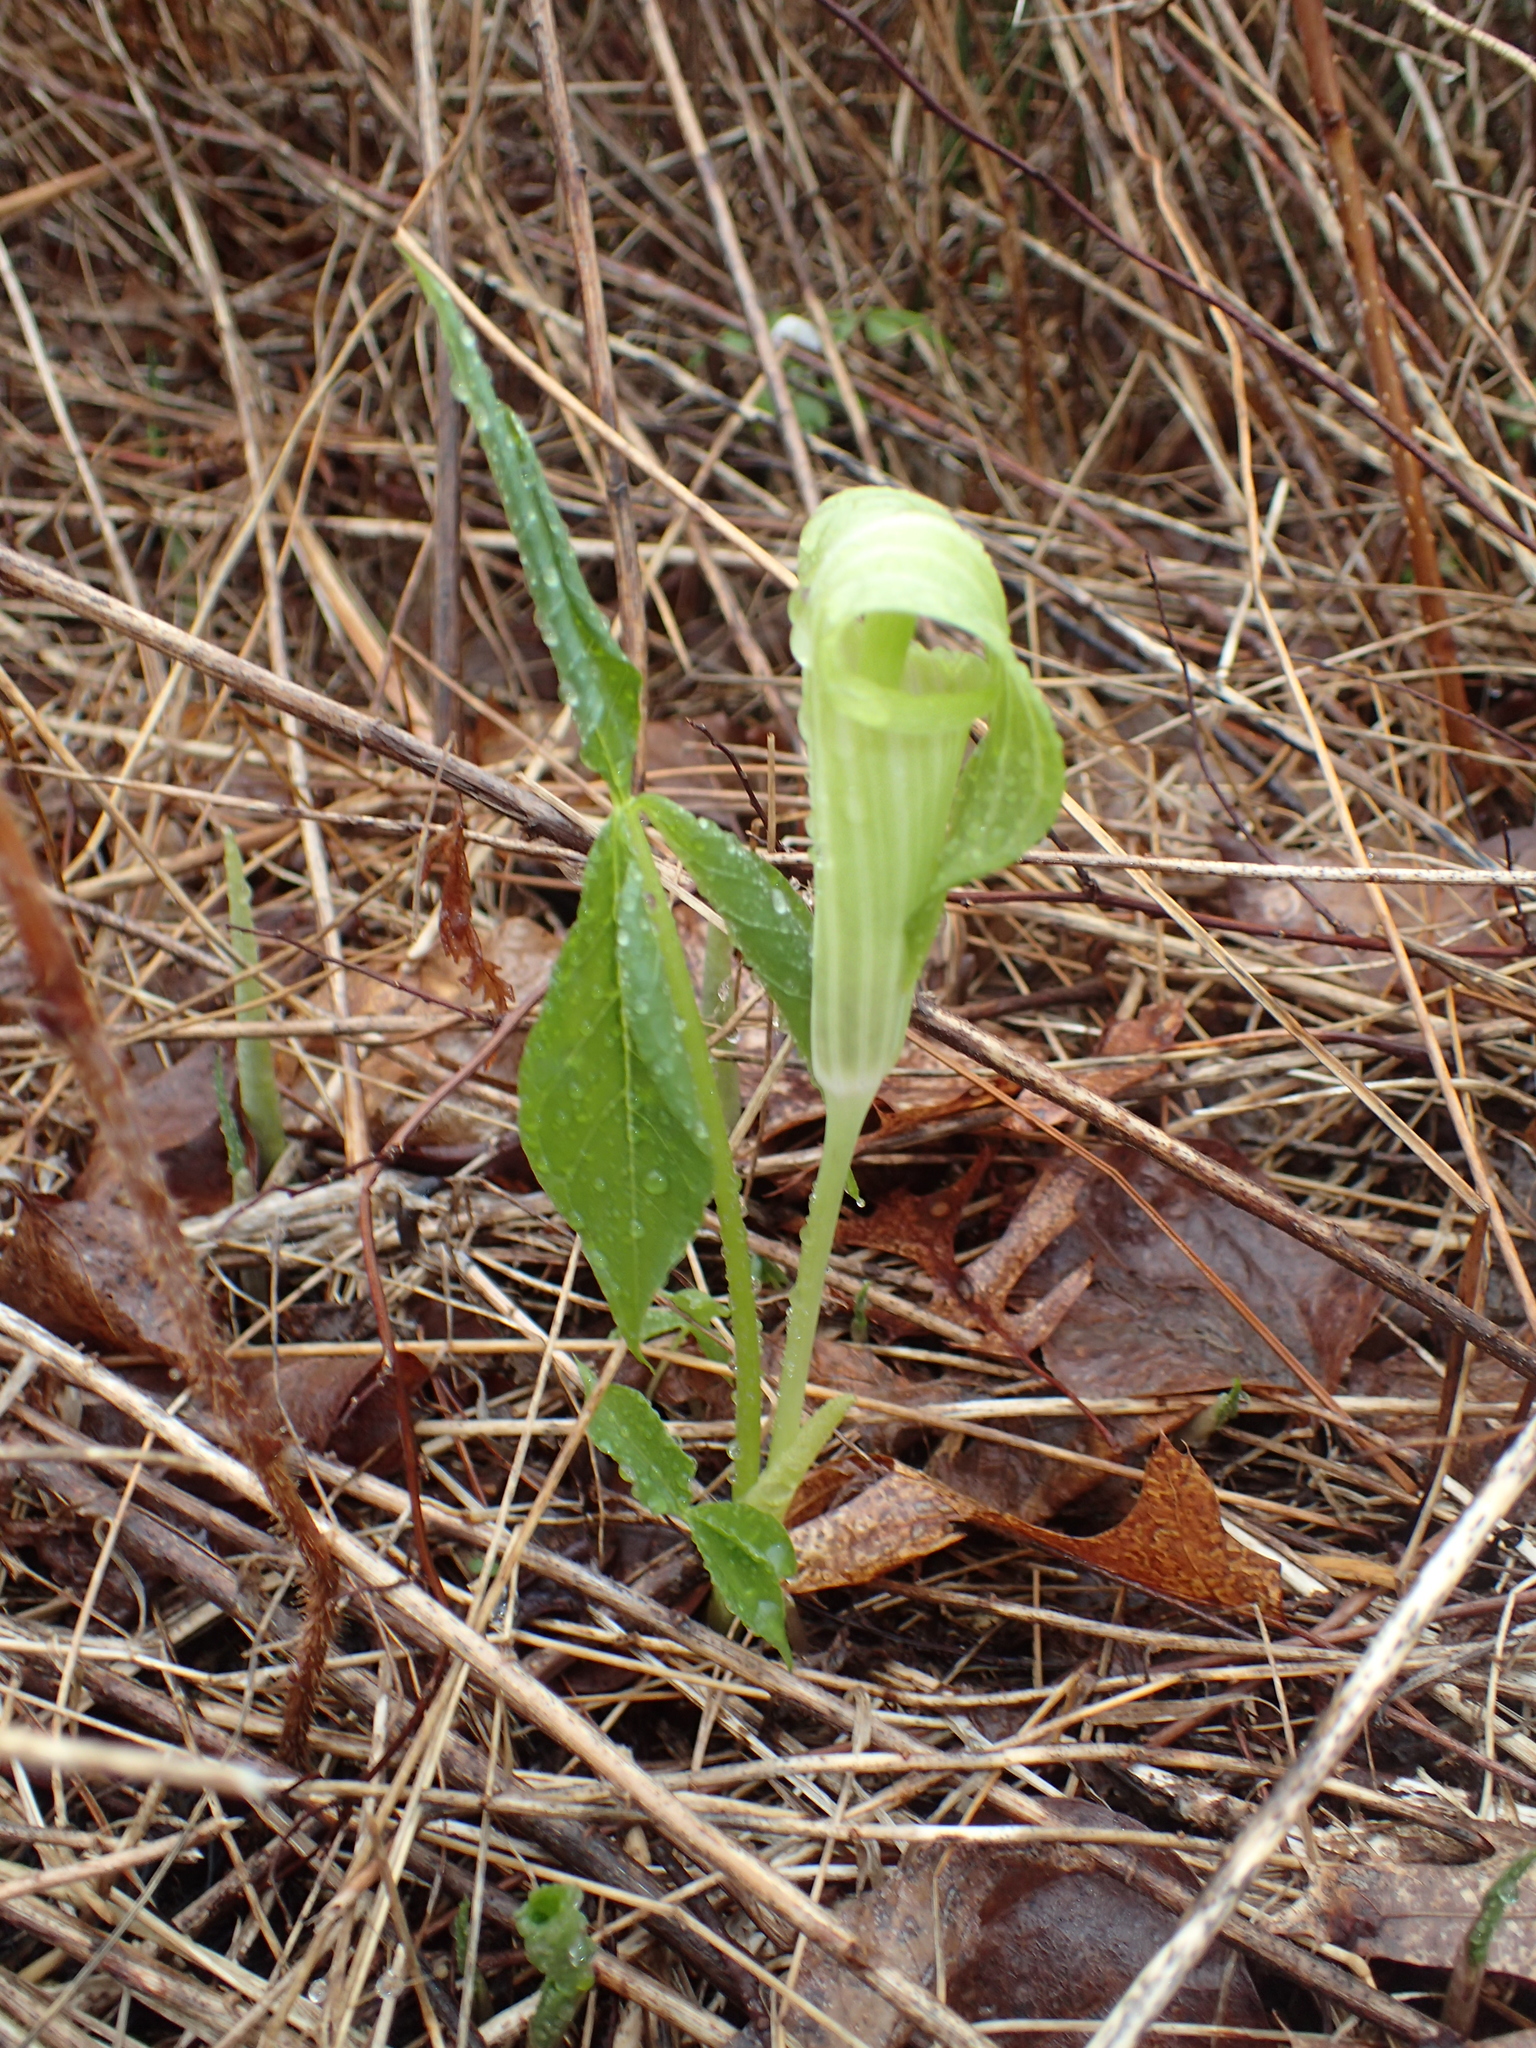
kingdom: Plantae
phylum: Tracheophyta
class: Liliopsida
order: Alismatales
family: Araceae
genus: Arisaema
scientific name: Arisaema triphyllum
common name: Jack-in-the-pulpit
